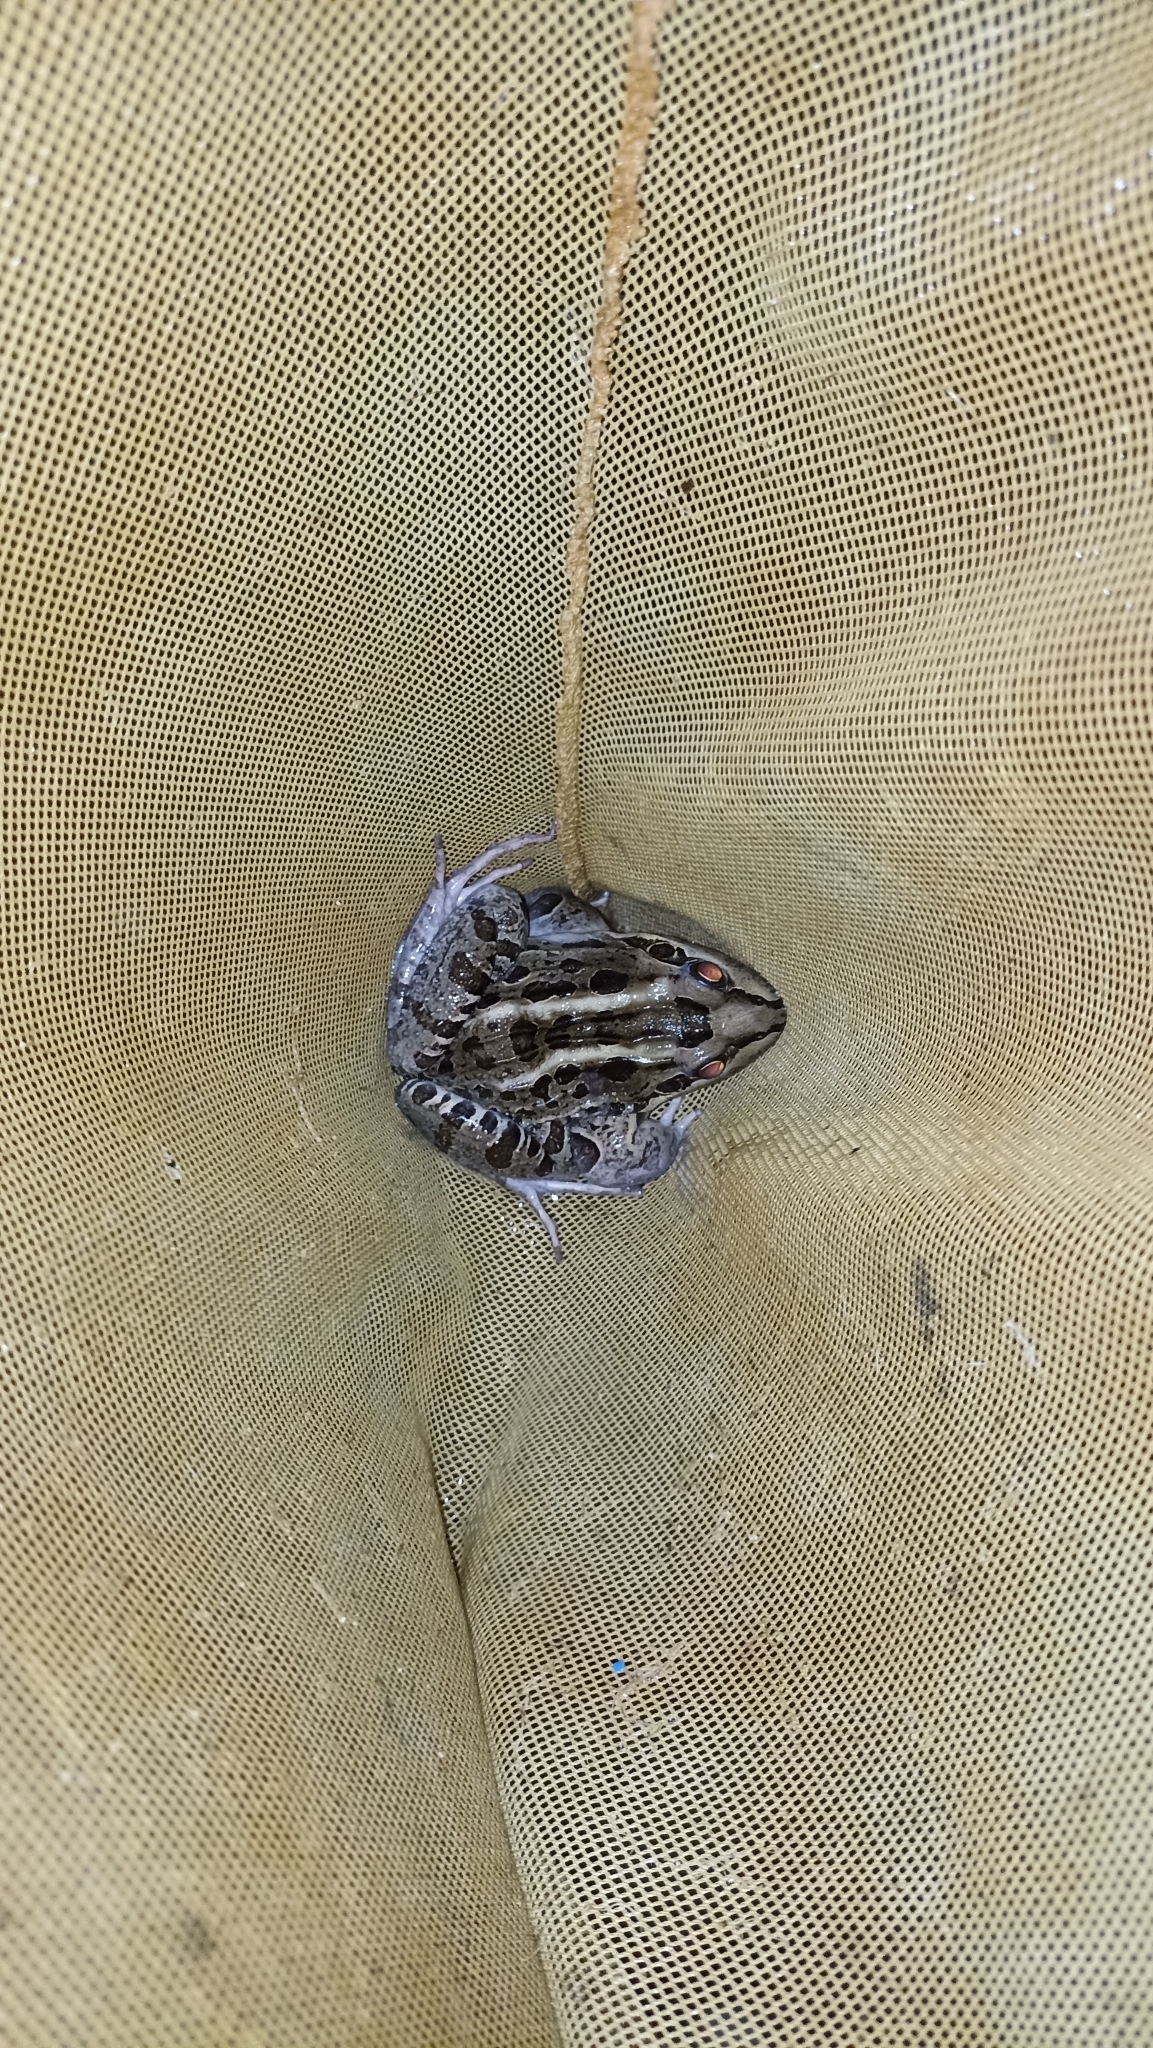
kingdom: Animalia
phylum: Chordata
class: Amphibia
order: Anura
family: Leptodactylidae
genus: Leptodactylus
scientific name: Leptodactylus luctator
